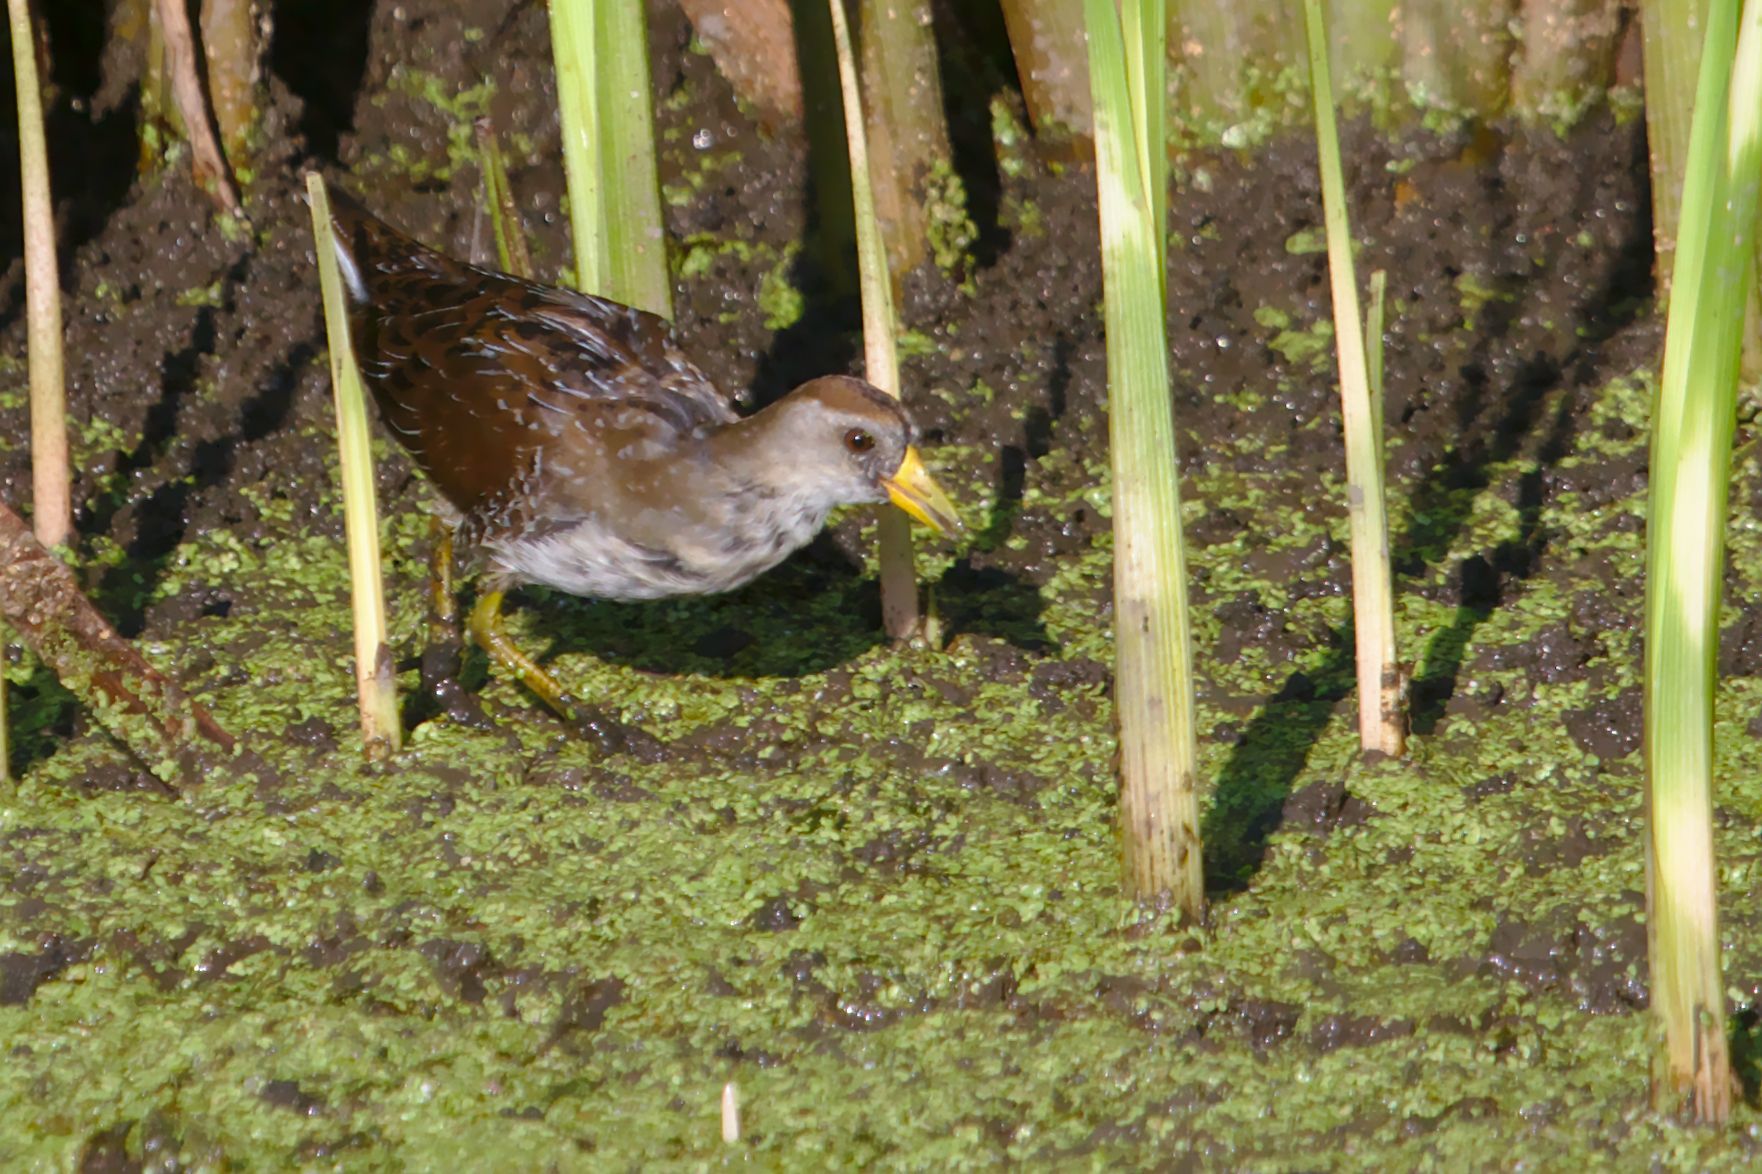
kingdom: Animalia
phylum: Chordata
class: Aves
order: Gruiformes
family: Rallidae
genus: Porzana
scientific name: Porzana carolina
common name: Sora
